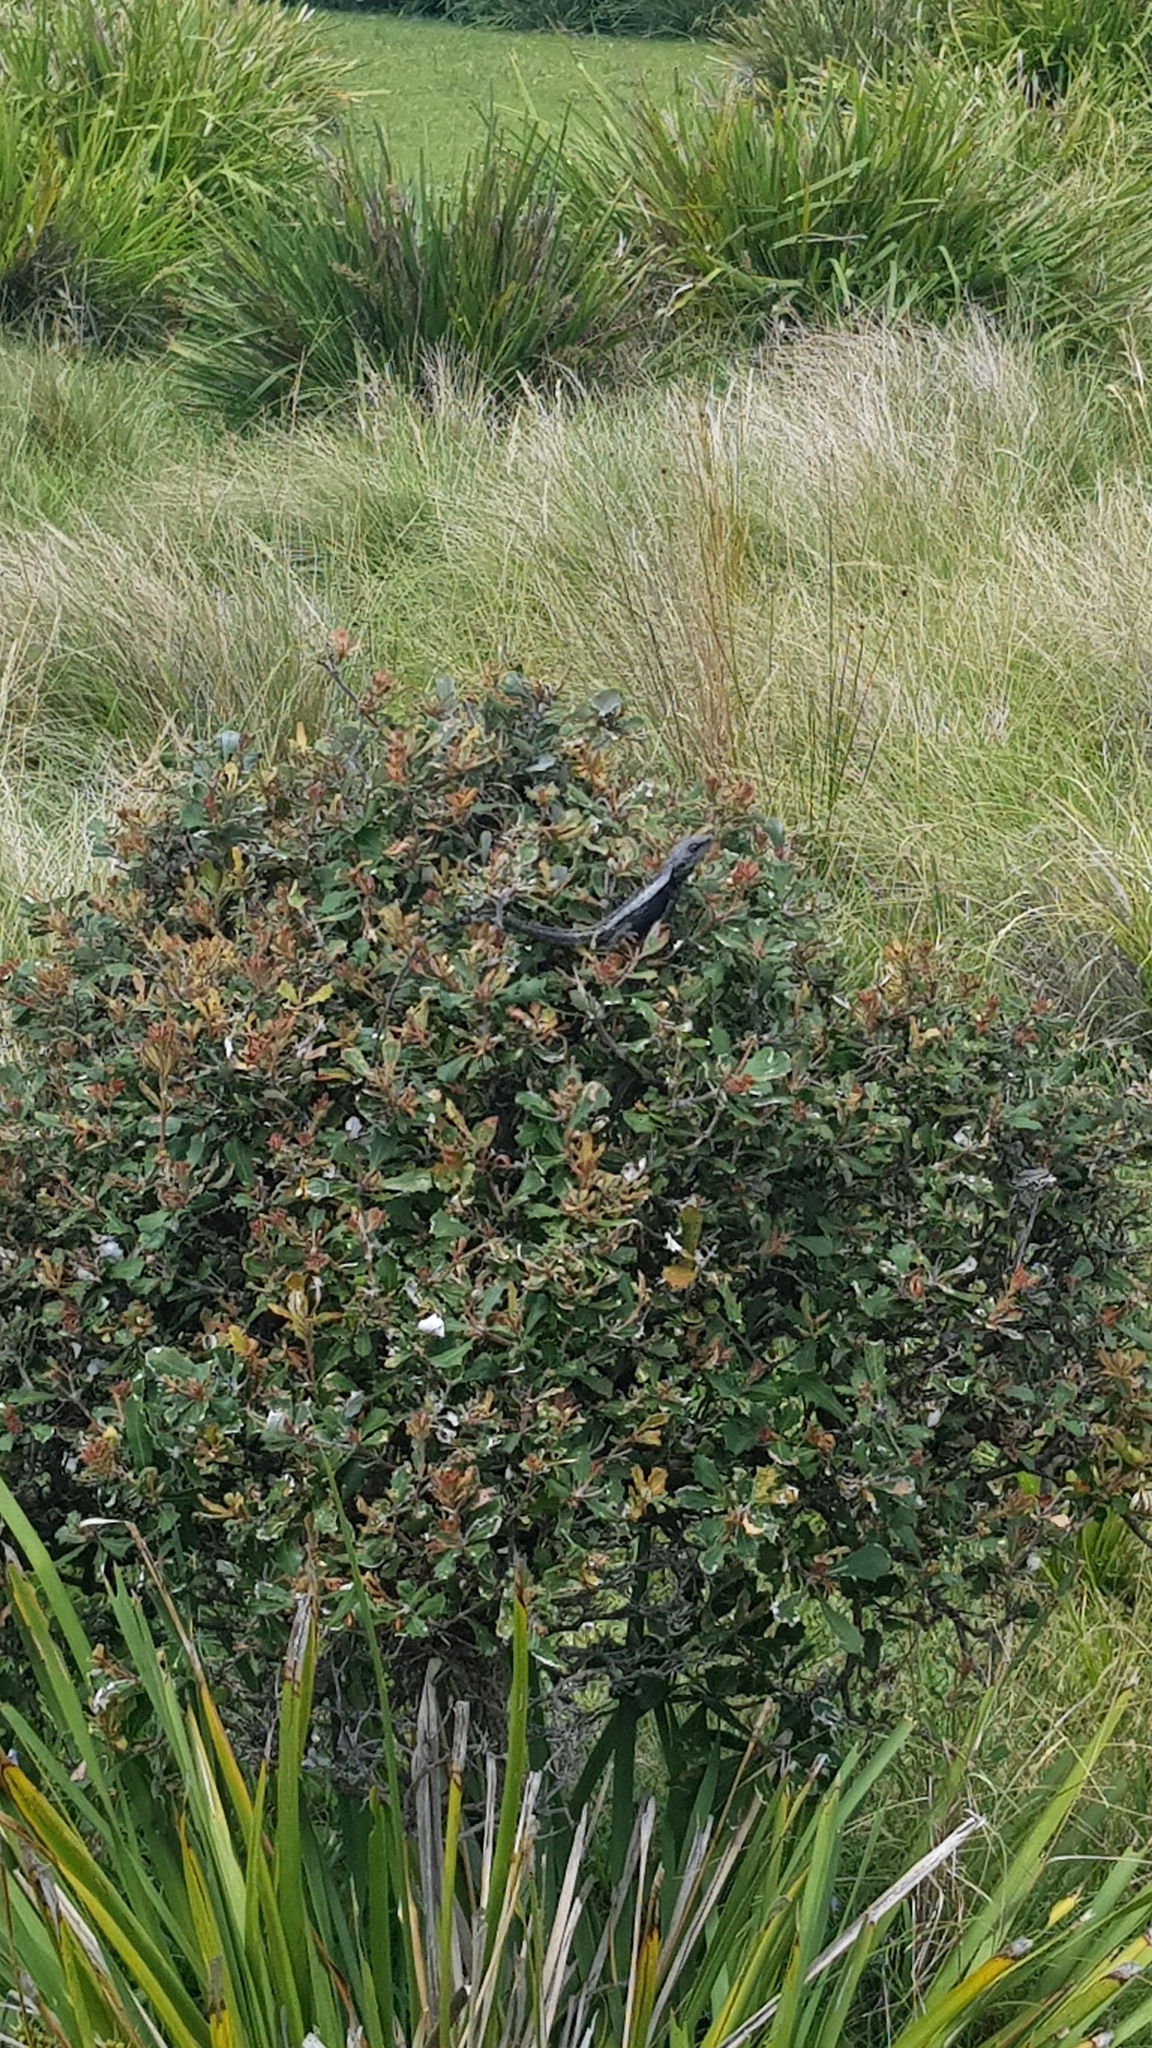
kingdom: Animalia
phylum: Chordata
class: Squamata
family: Agamidae
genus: Amphibolurus
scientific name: Amphibolurus muricatus
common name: Jacky lizard
